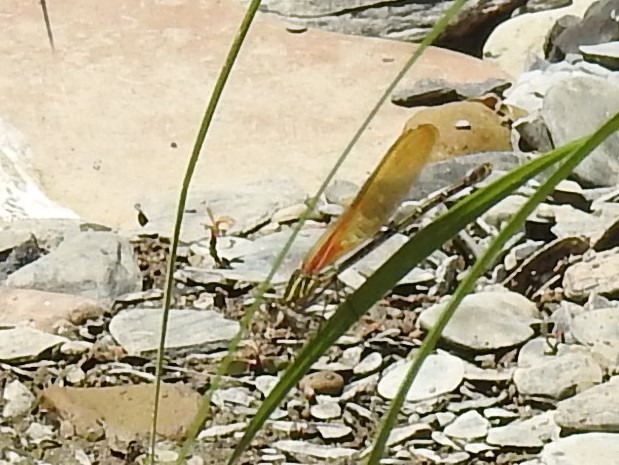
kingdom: Animalia
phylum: Arthropoda
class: Insecta
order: Odonata
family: Calopterygidae
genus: Hetaerina
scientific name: Hetaerina americana
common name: American rubyspot
